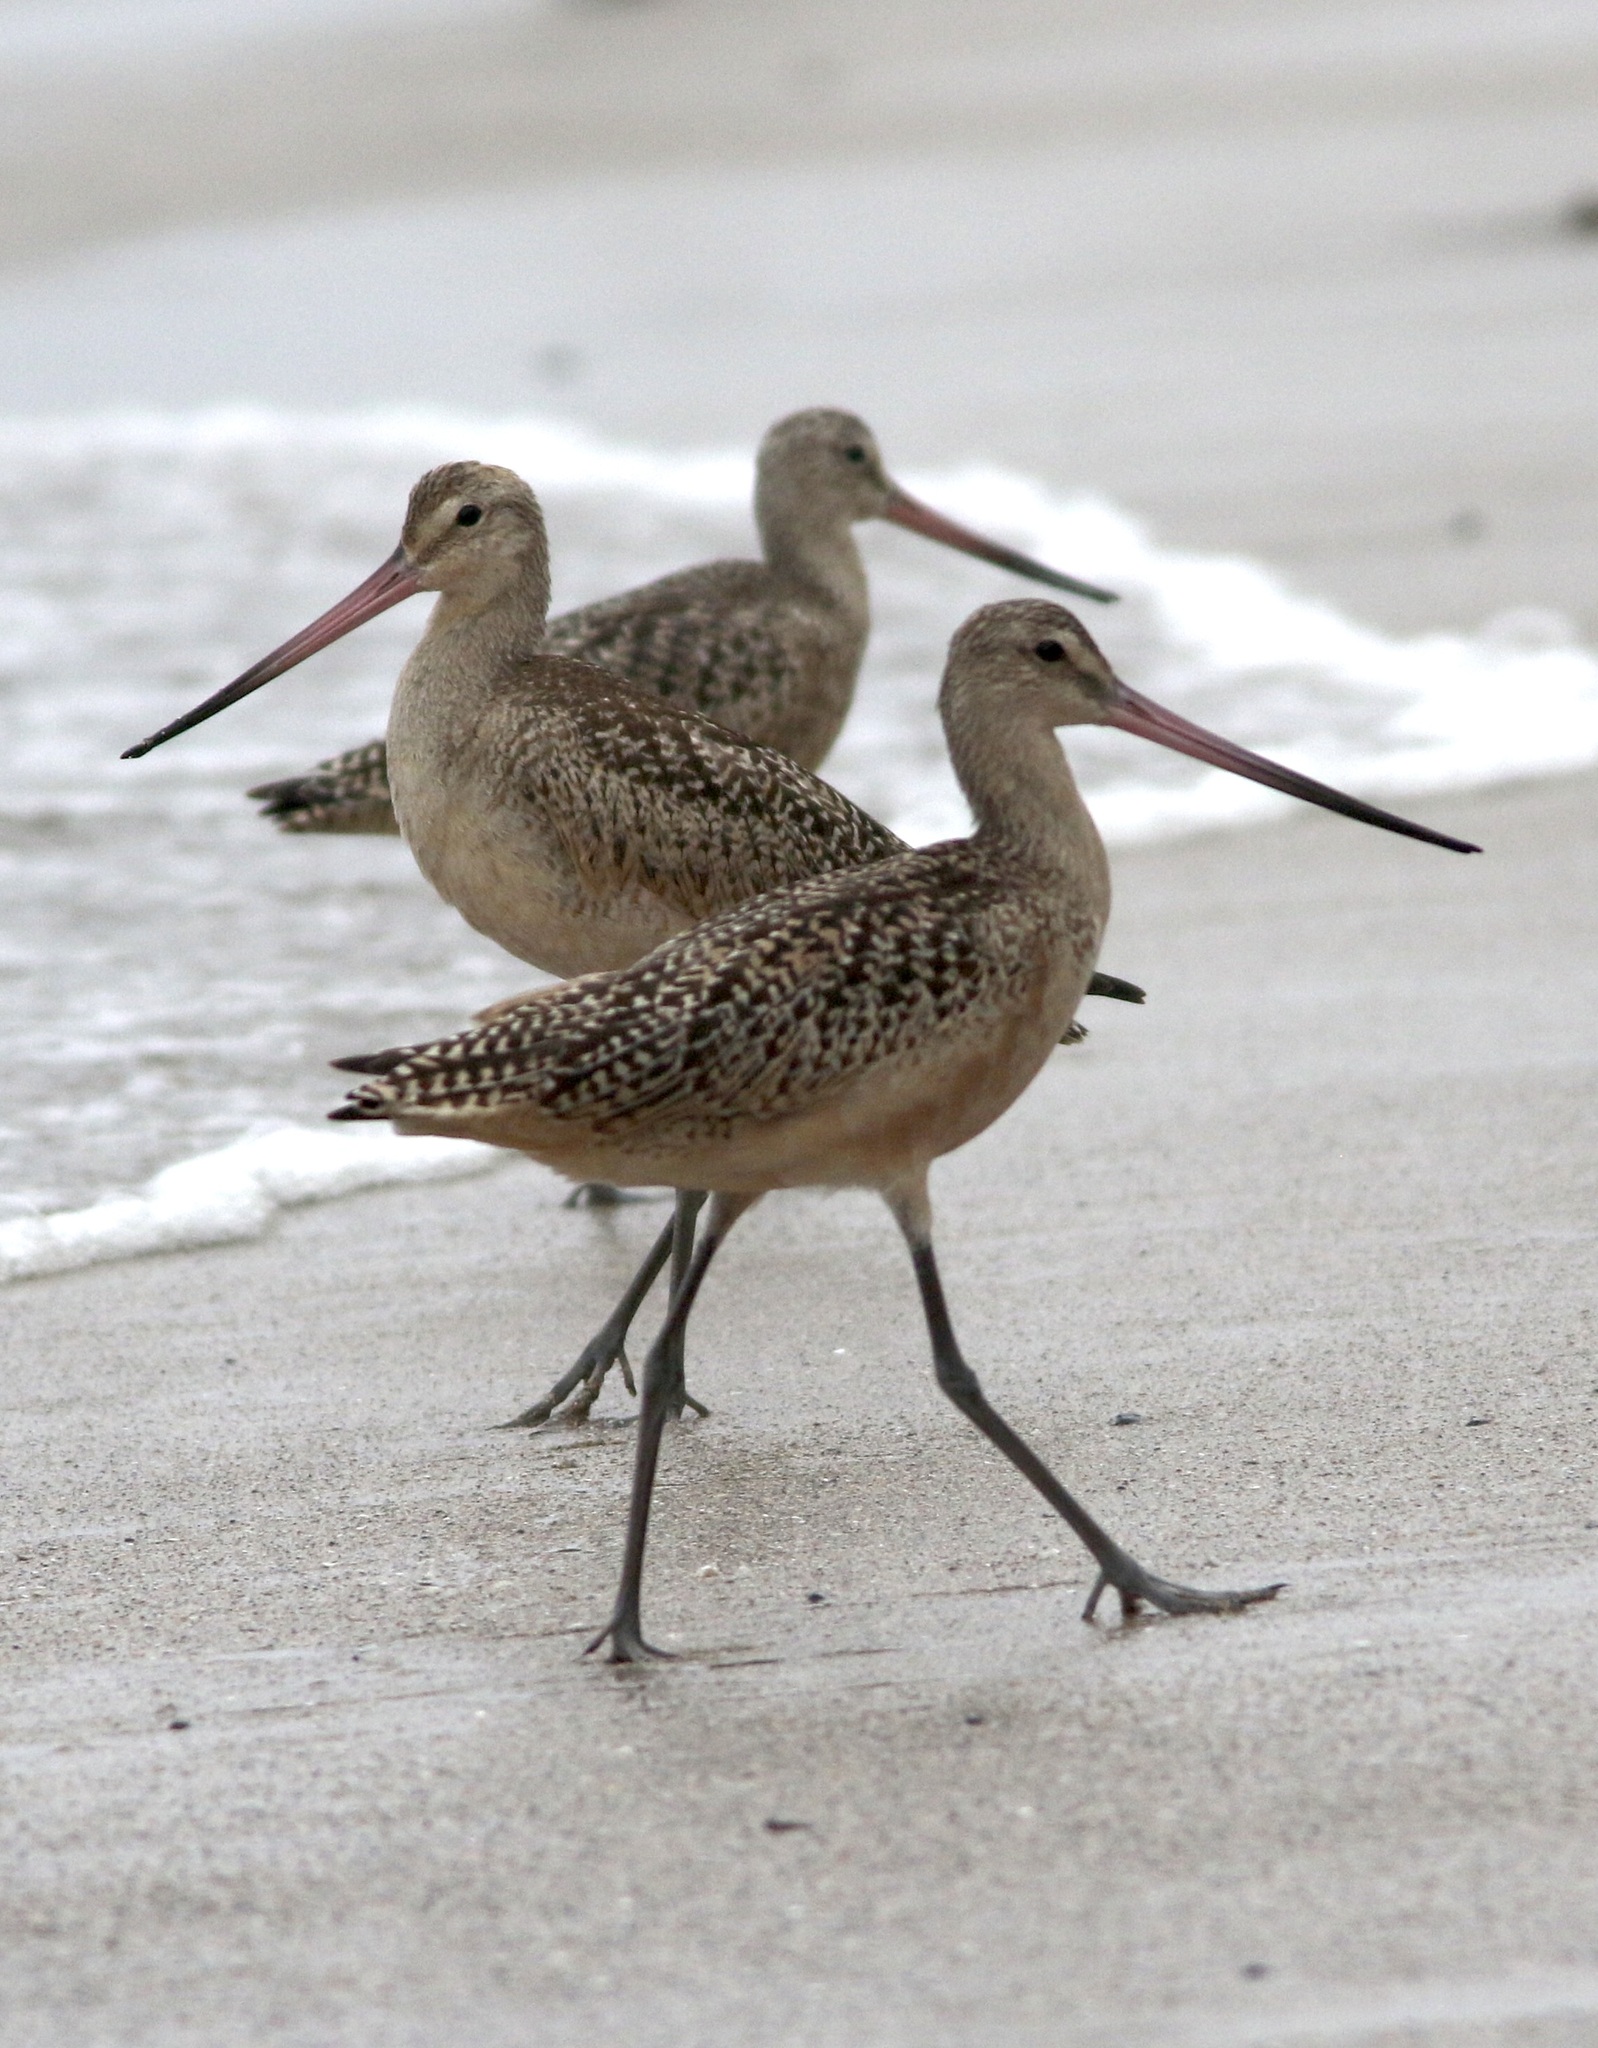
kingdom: Animalia
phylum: Chordata
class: Aves
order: Charadriiformes
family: Scolopacidae
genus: Limosa
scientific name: Limosa fedoa
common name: Marbled godwit
